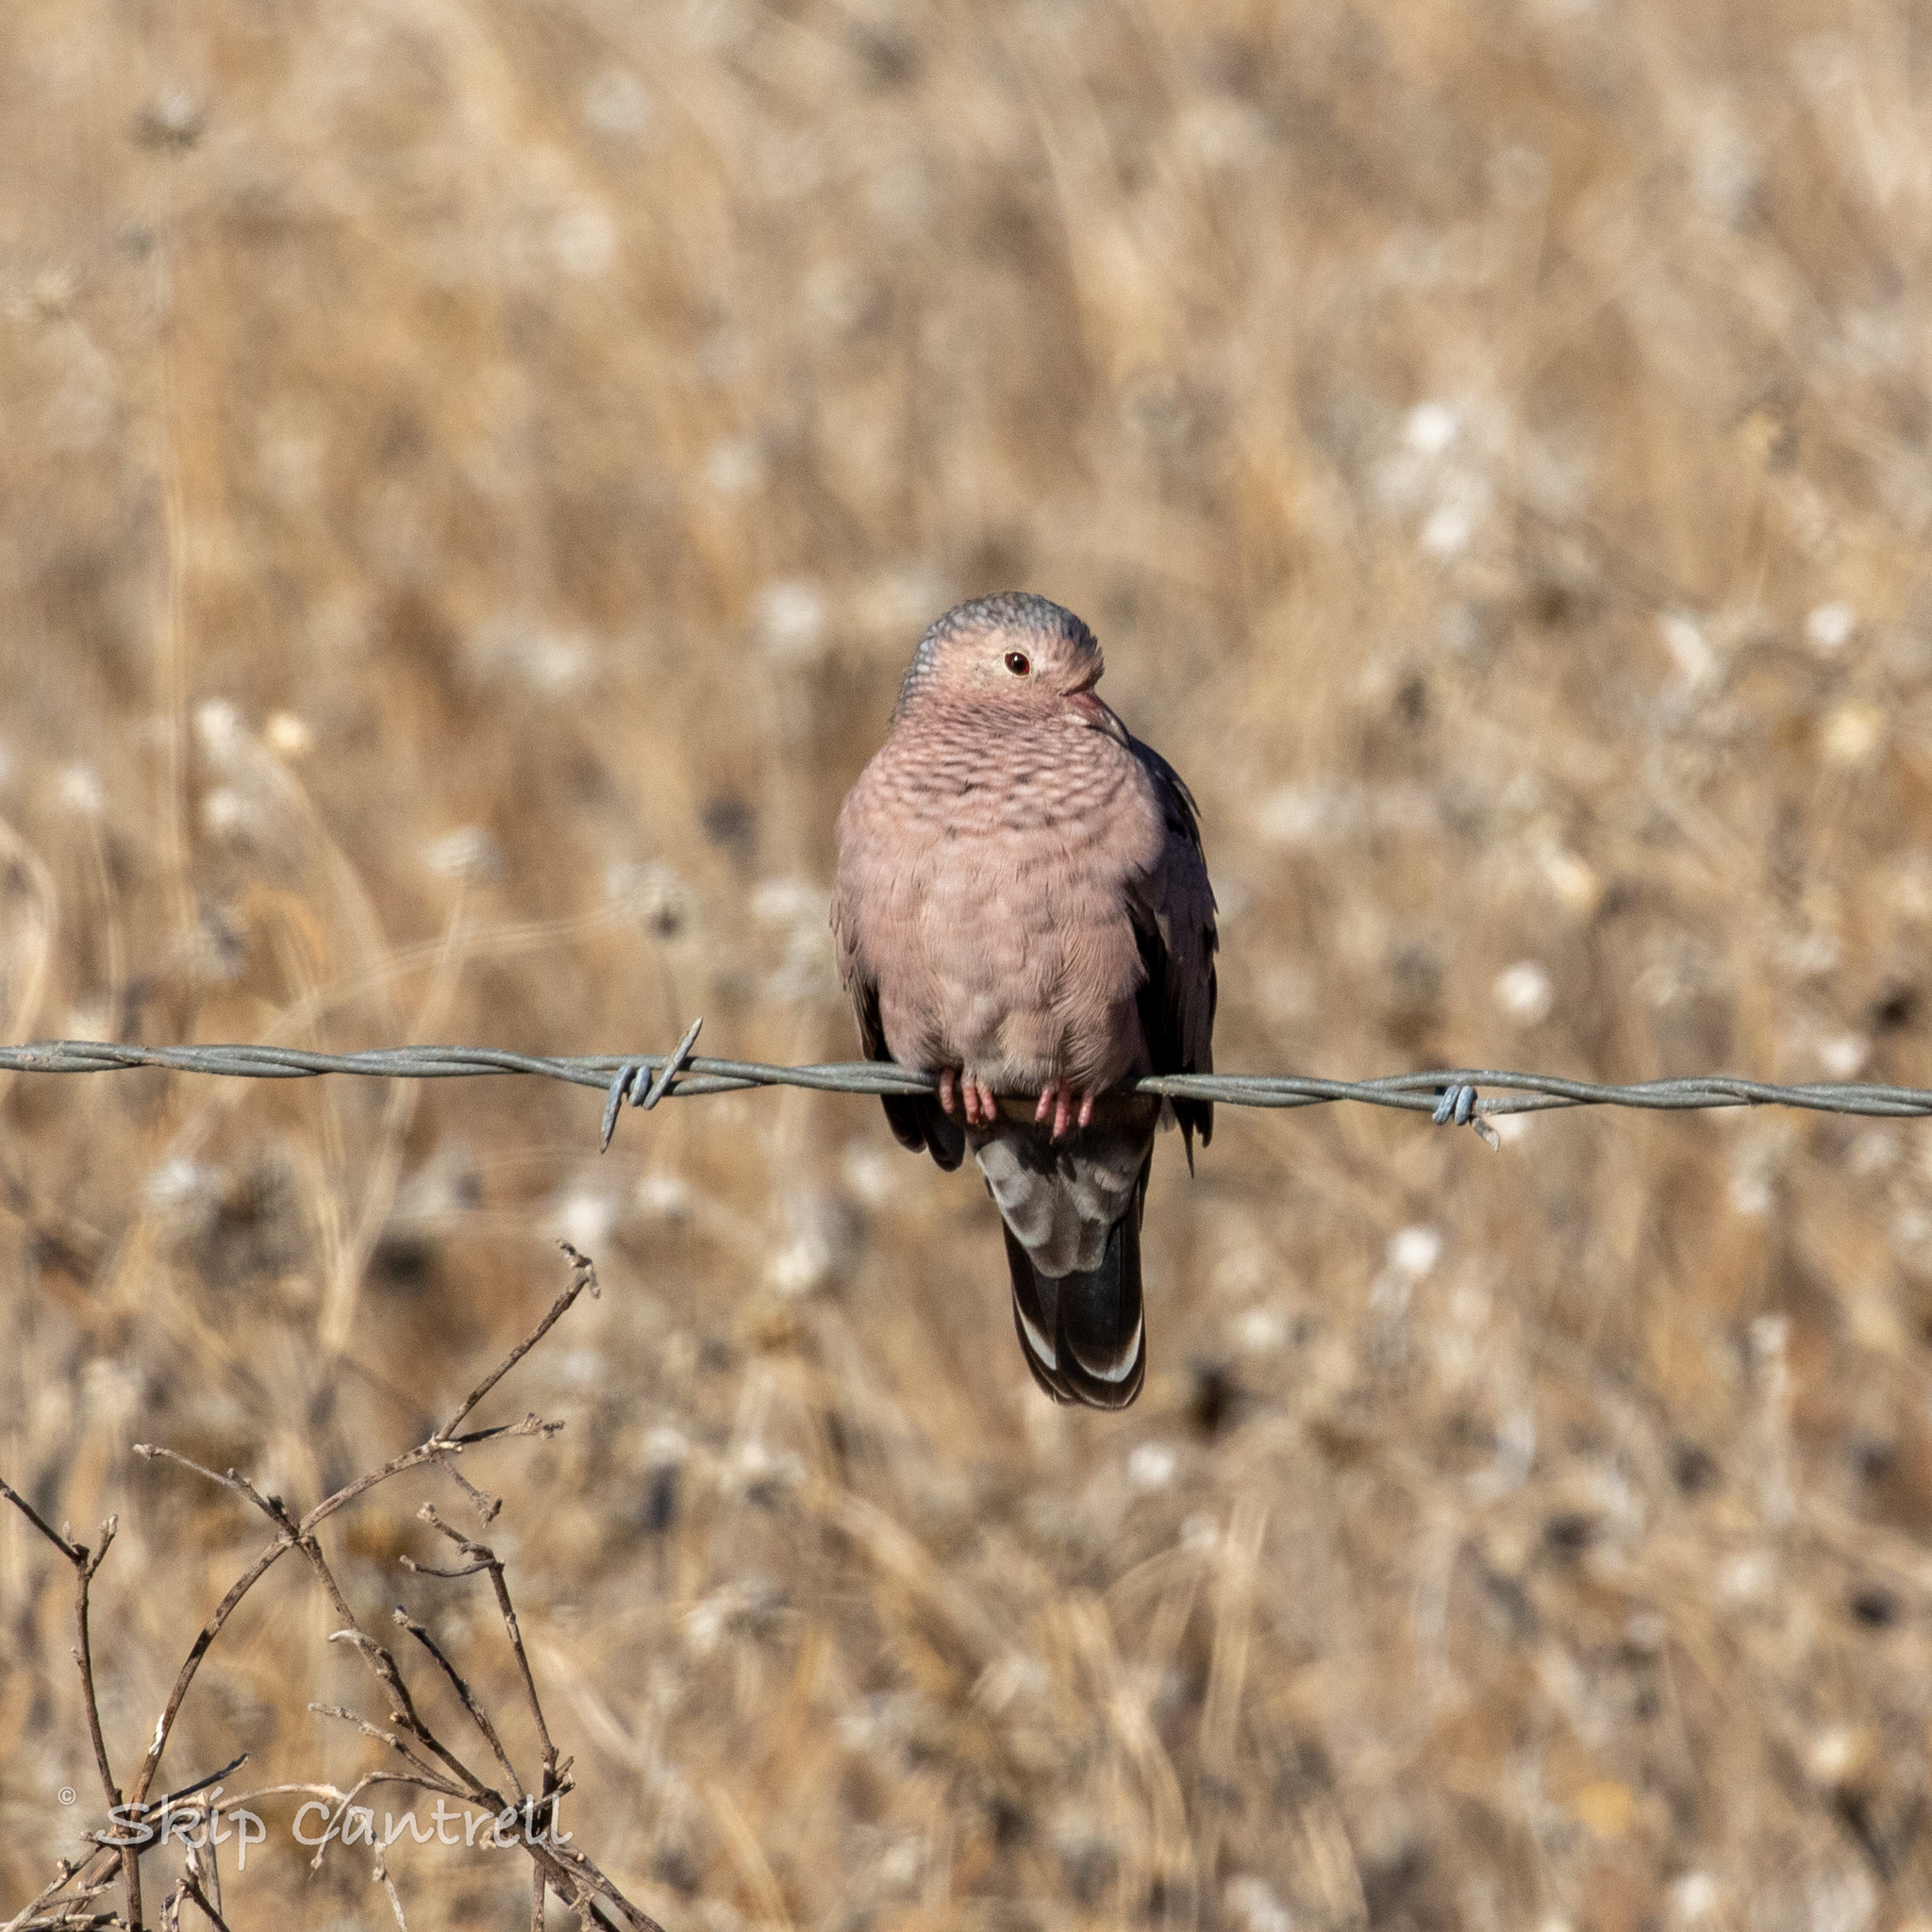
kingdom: Animalia
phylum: Chordata
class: Aves
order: Columbiformes
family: Columbidae
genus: Columbina
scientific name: Columbina passerina
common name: Common ground-dove
